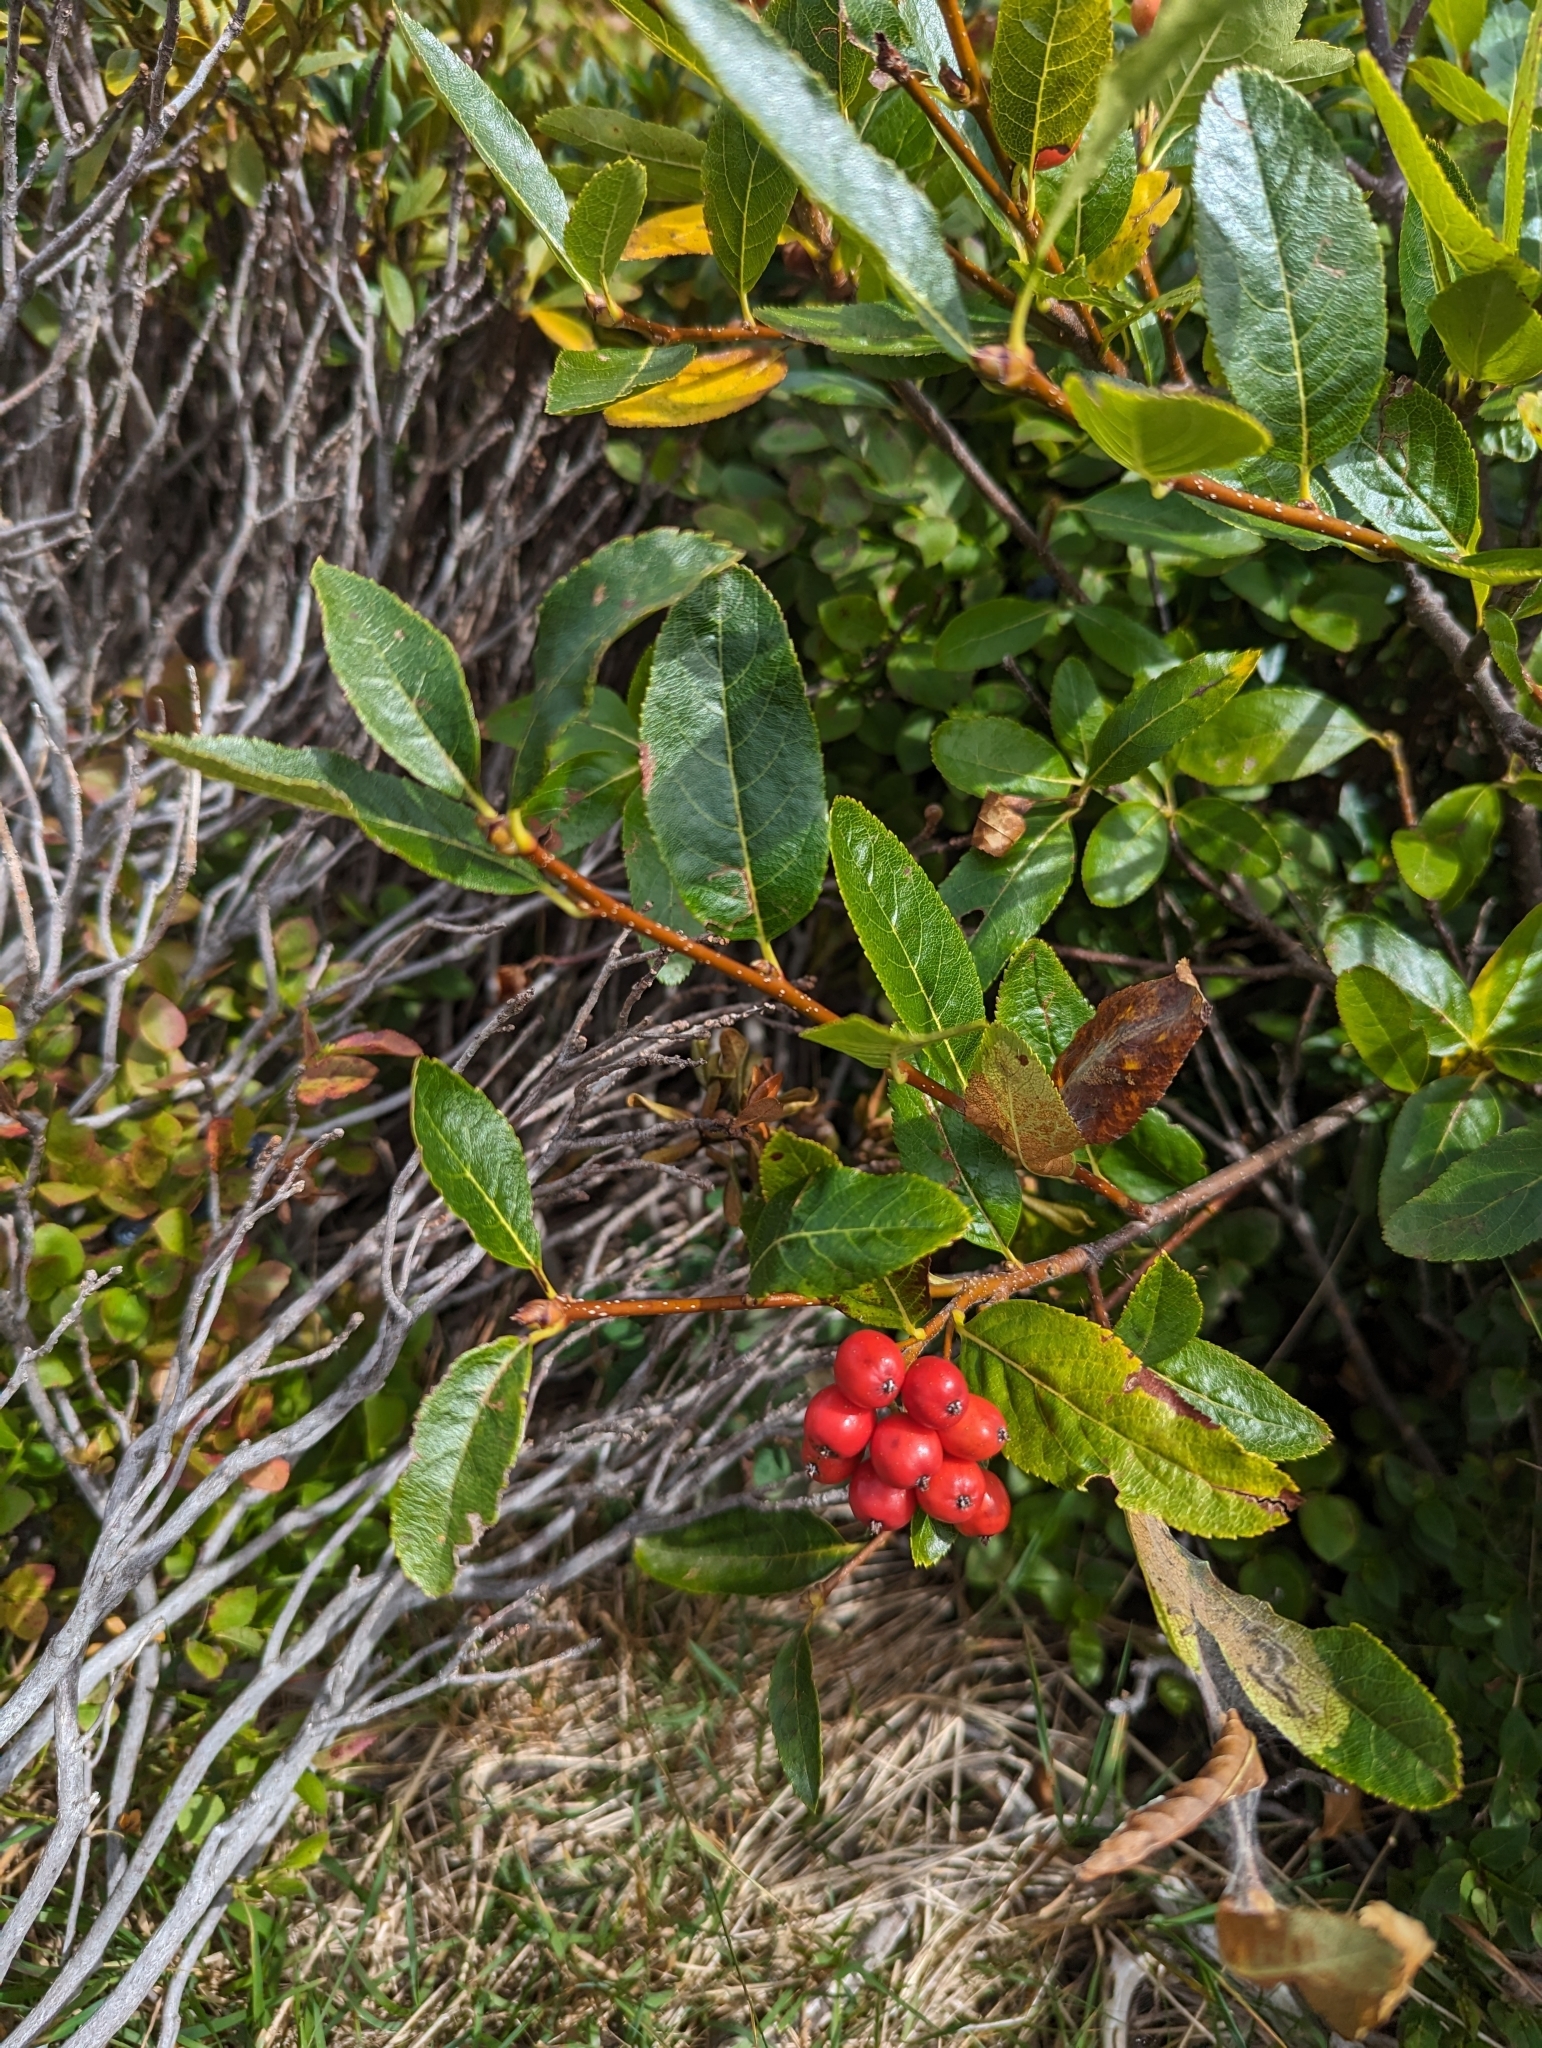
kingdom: Plantae
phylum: Tracheophyta
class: Magnoliopsida
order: Rosales
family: Rosaceae
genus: Chamaemespilus
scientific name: Chamaemespilus alpina
